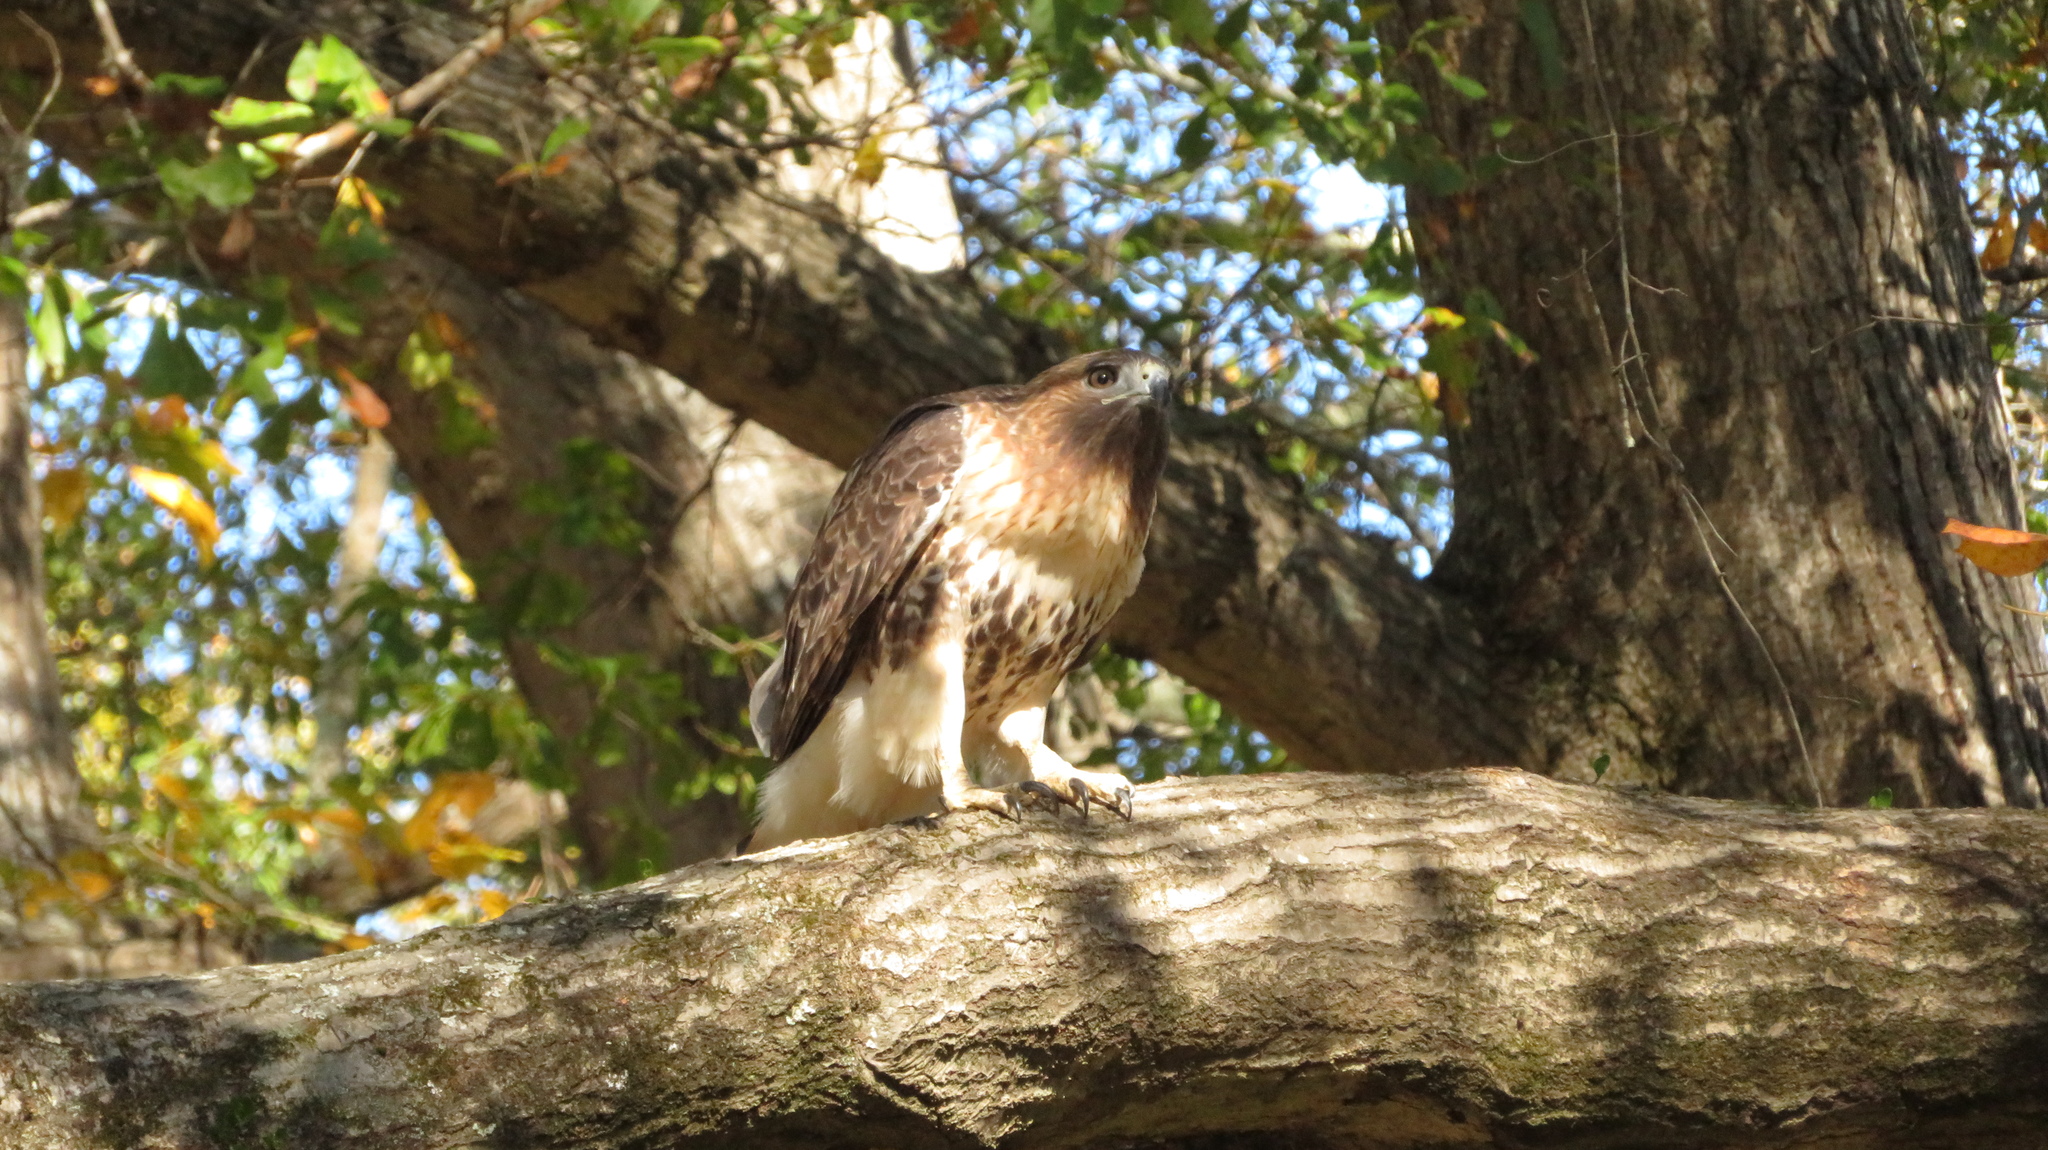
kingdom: Animalia
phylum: Chordata
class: Aves
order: Accipitriformes
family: Accipitridae
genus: Buteo
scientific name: Buteo jamaicensis
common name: Red-tailed hawk
